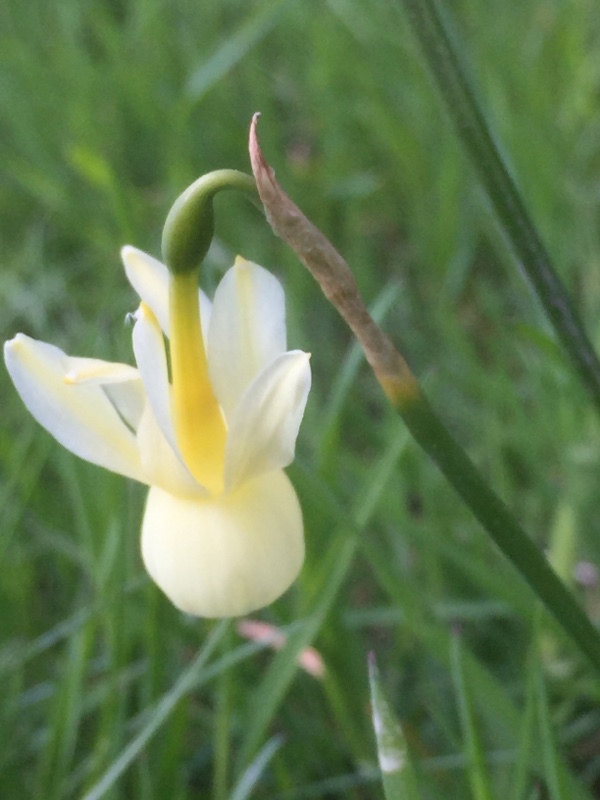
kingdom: Plantae
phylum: Tracheophyta
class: Liliopsida
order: Asparagales
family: Amaryllidaceae
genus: Narcissus
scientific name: Narcissus triandrus
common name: Angel's-tears
